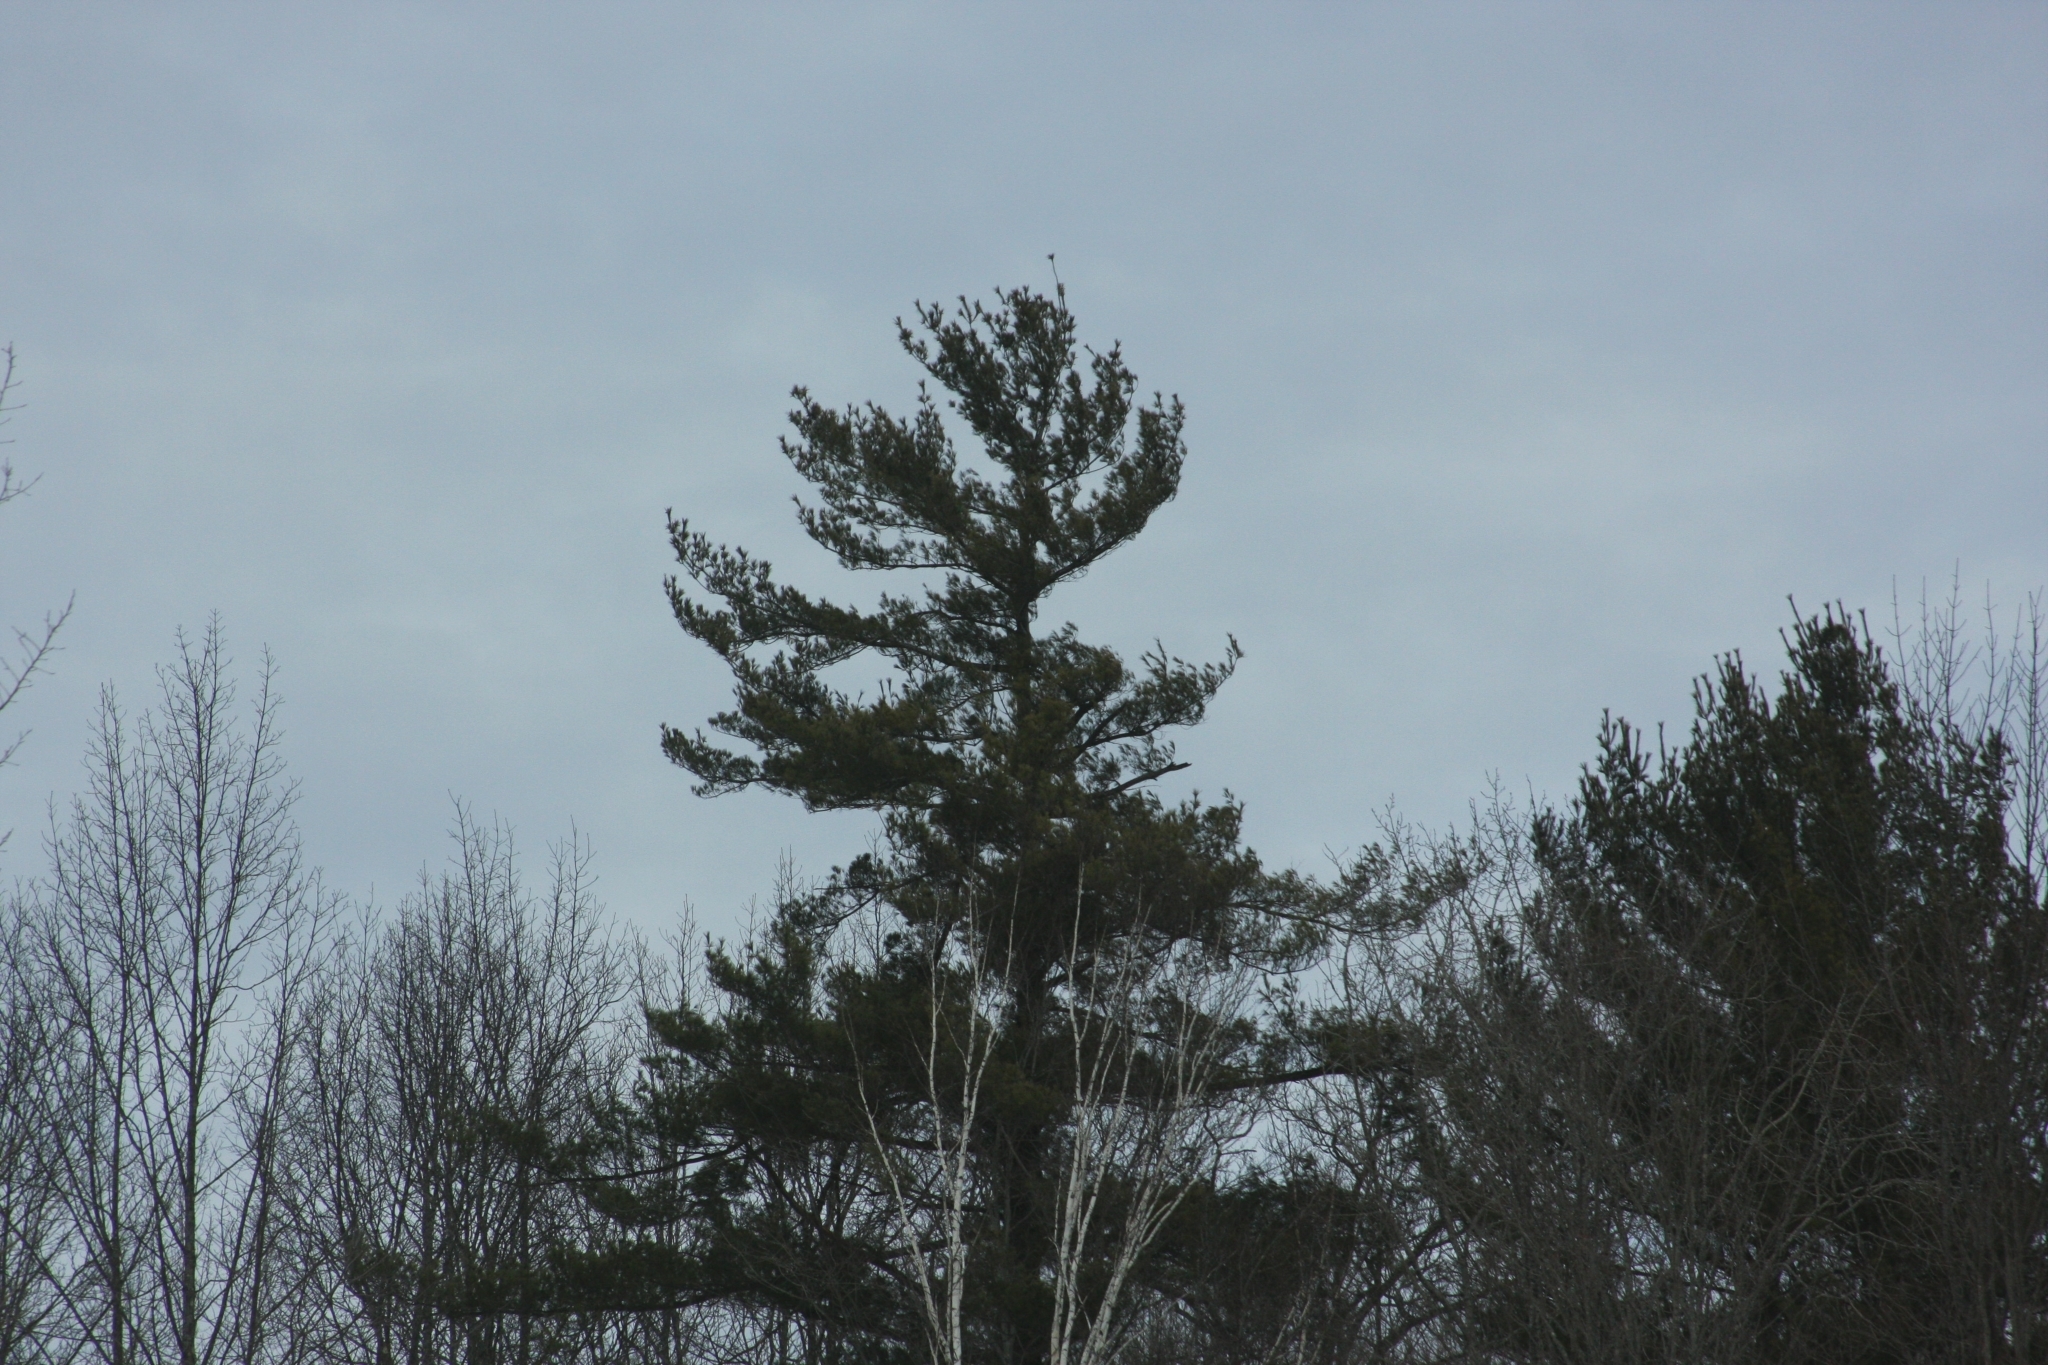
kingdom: Plantae
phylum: Tracheophyta
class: Pinopsida
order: Pinales
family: Pinaceae
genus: Pinus
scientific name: Pinus strobus
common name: Weymouth pine
